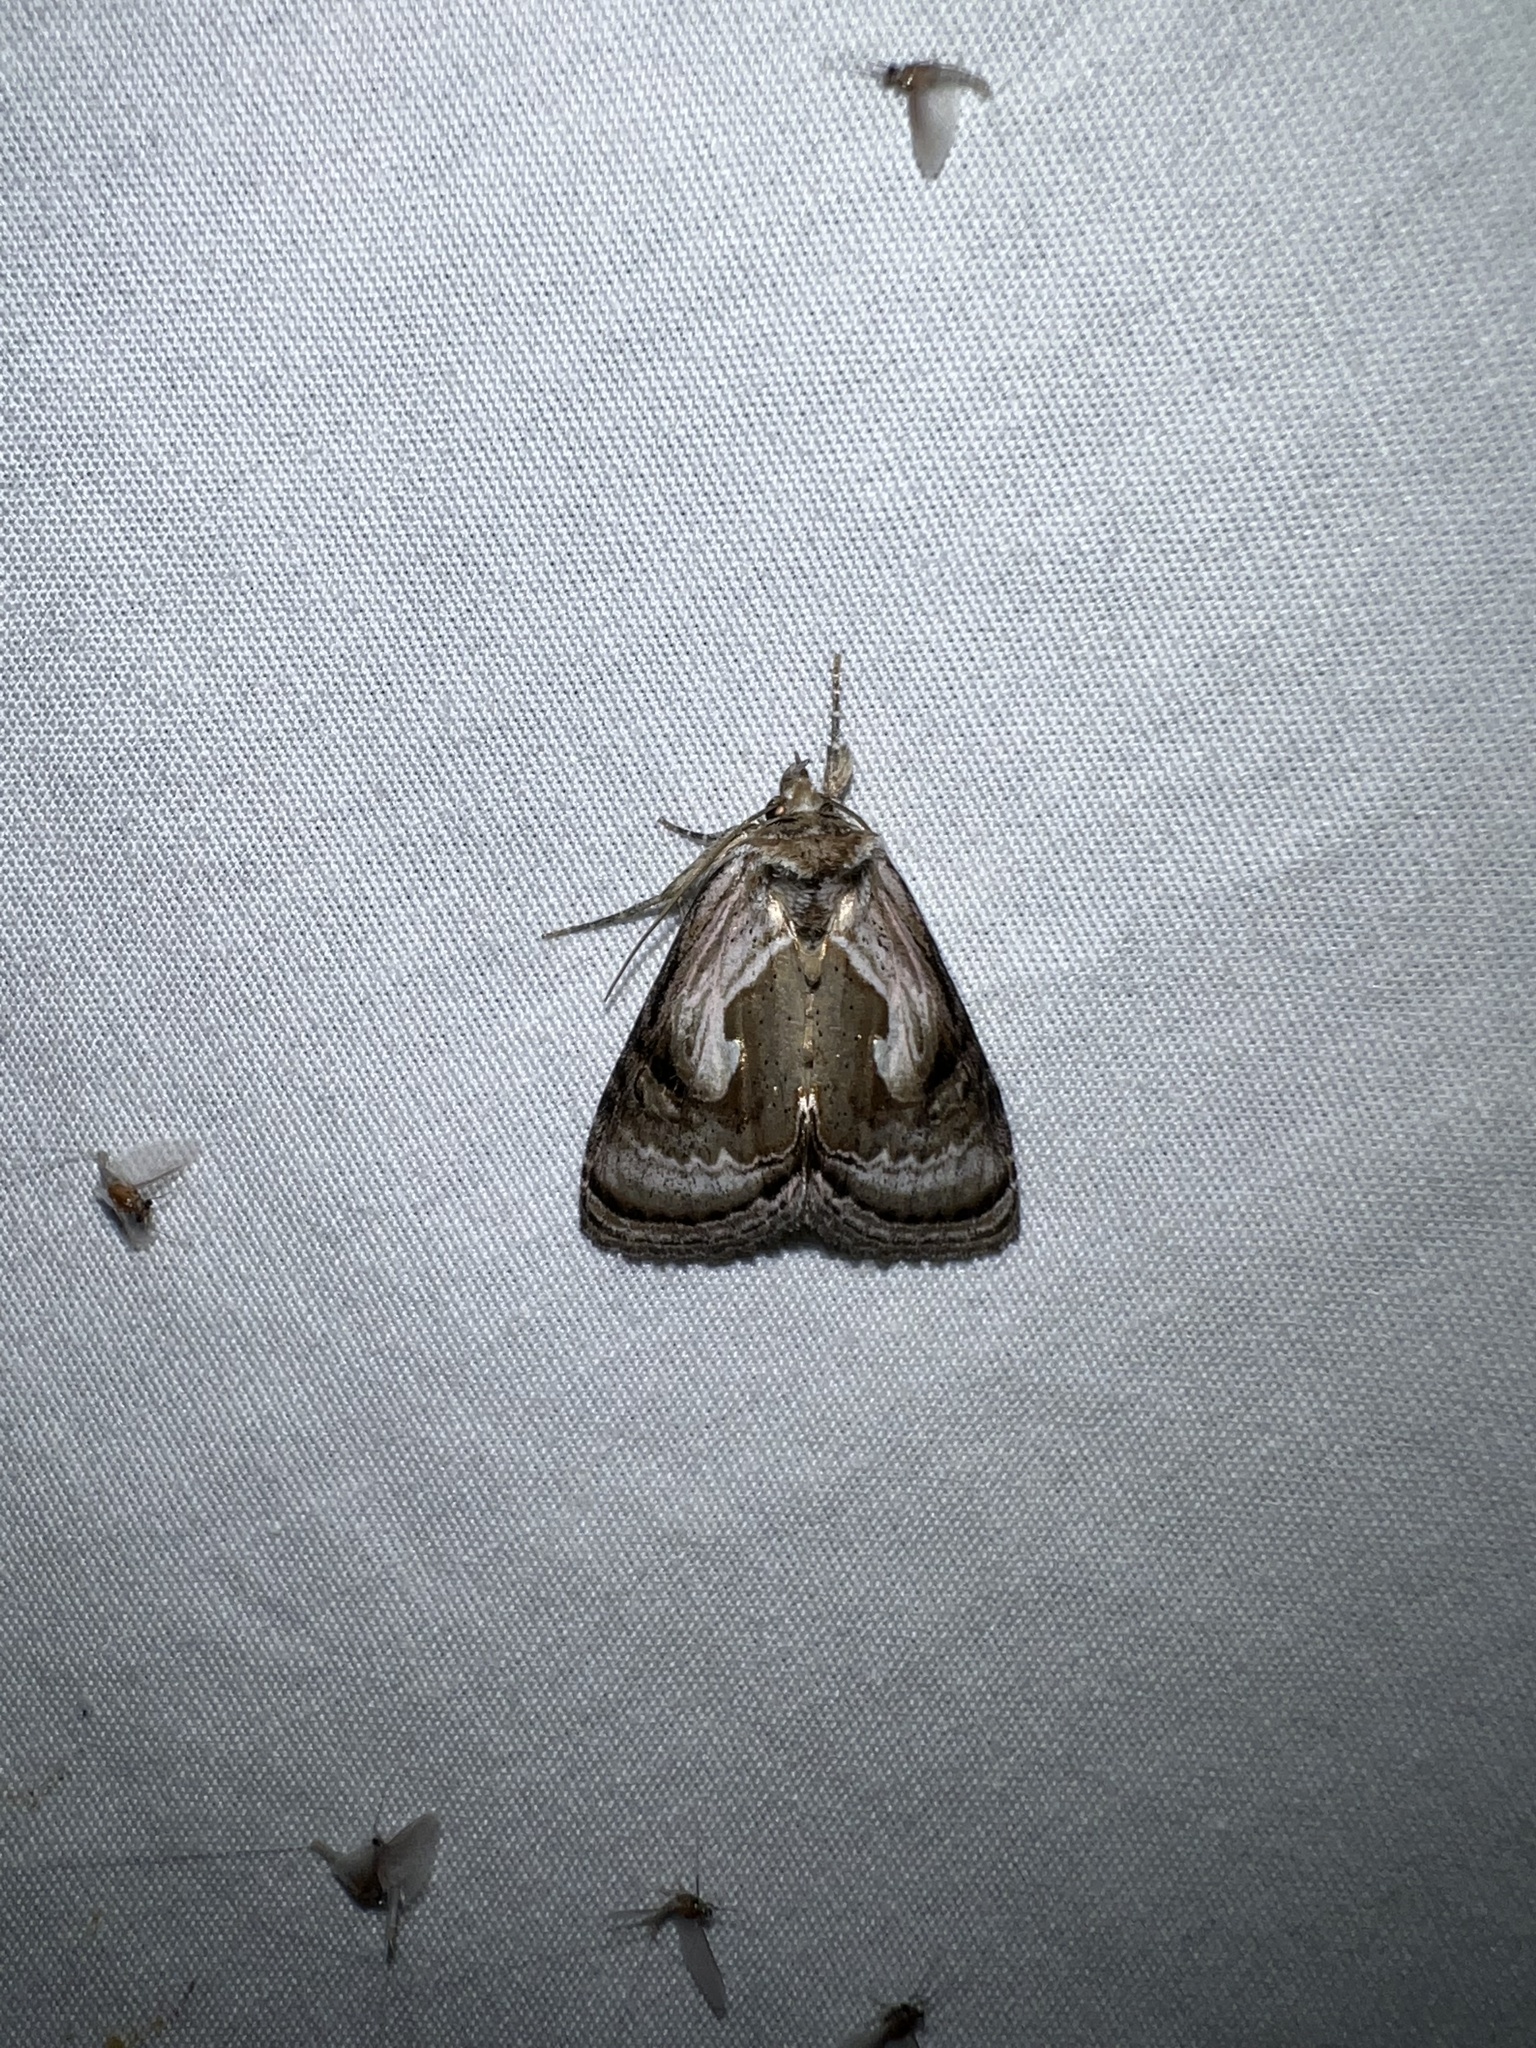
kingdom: Animalia
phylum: Arthropoda
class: Insecta
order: Lepidoptera
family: Noctuidae
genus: Chrysanympha
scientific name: Chrysanympha formosa
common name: Formosa looper moth
